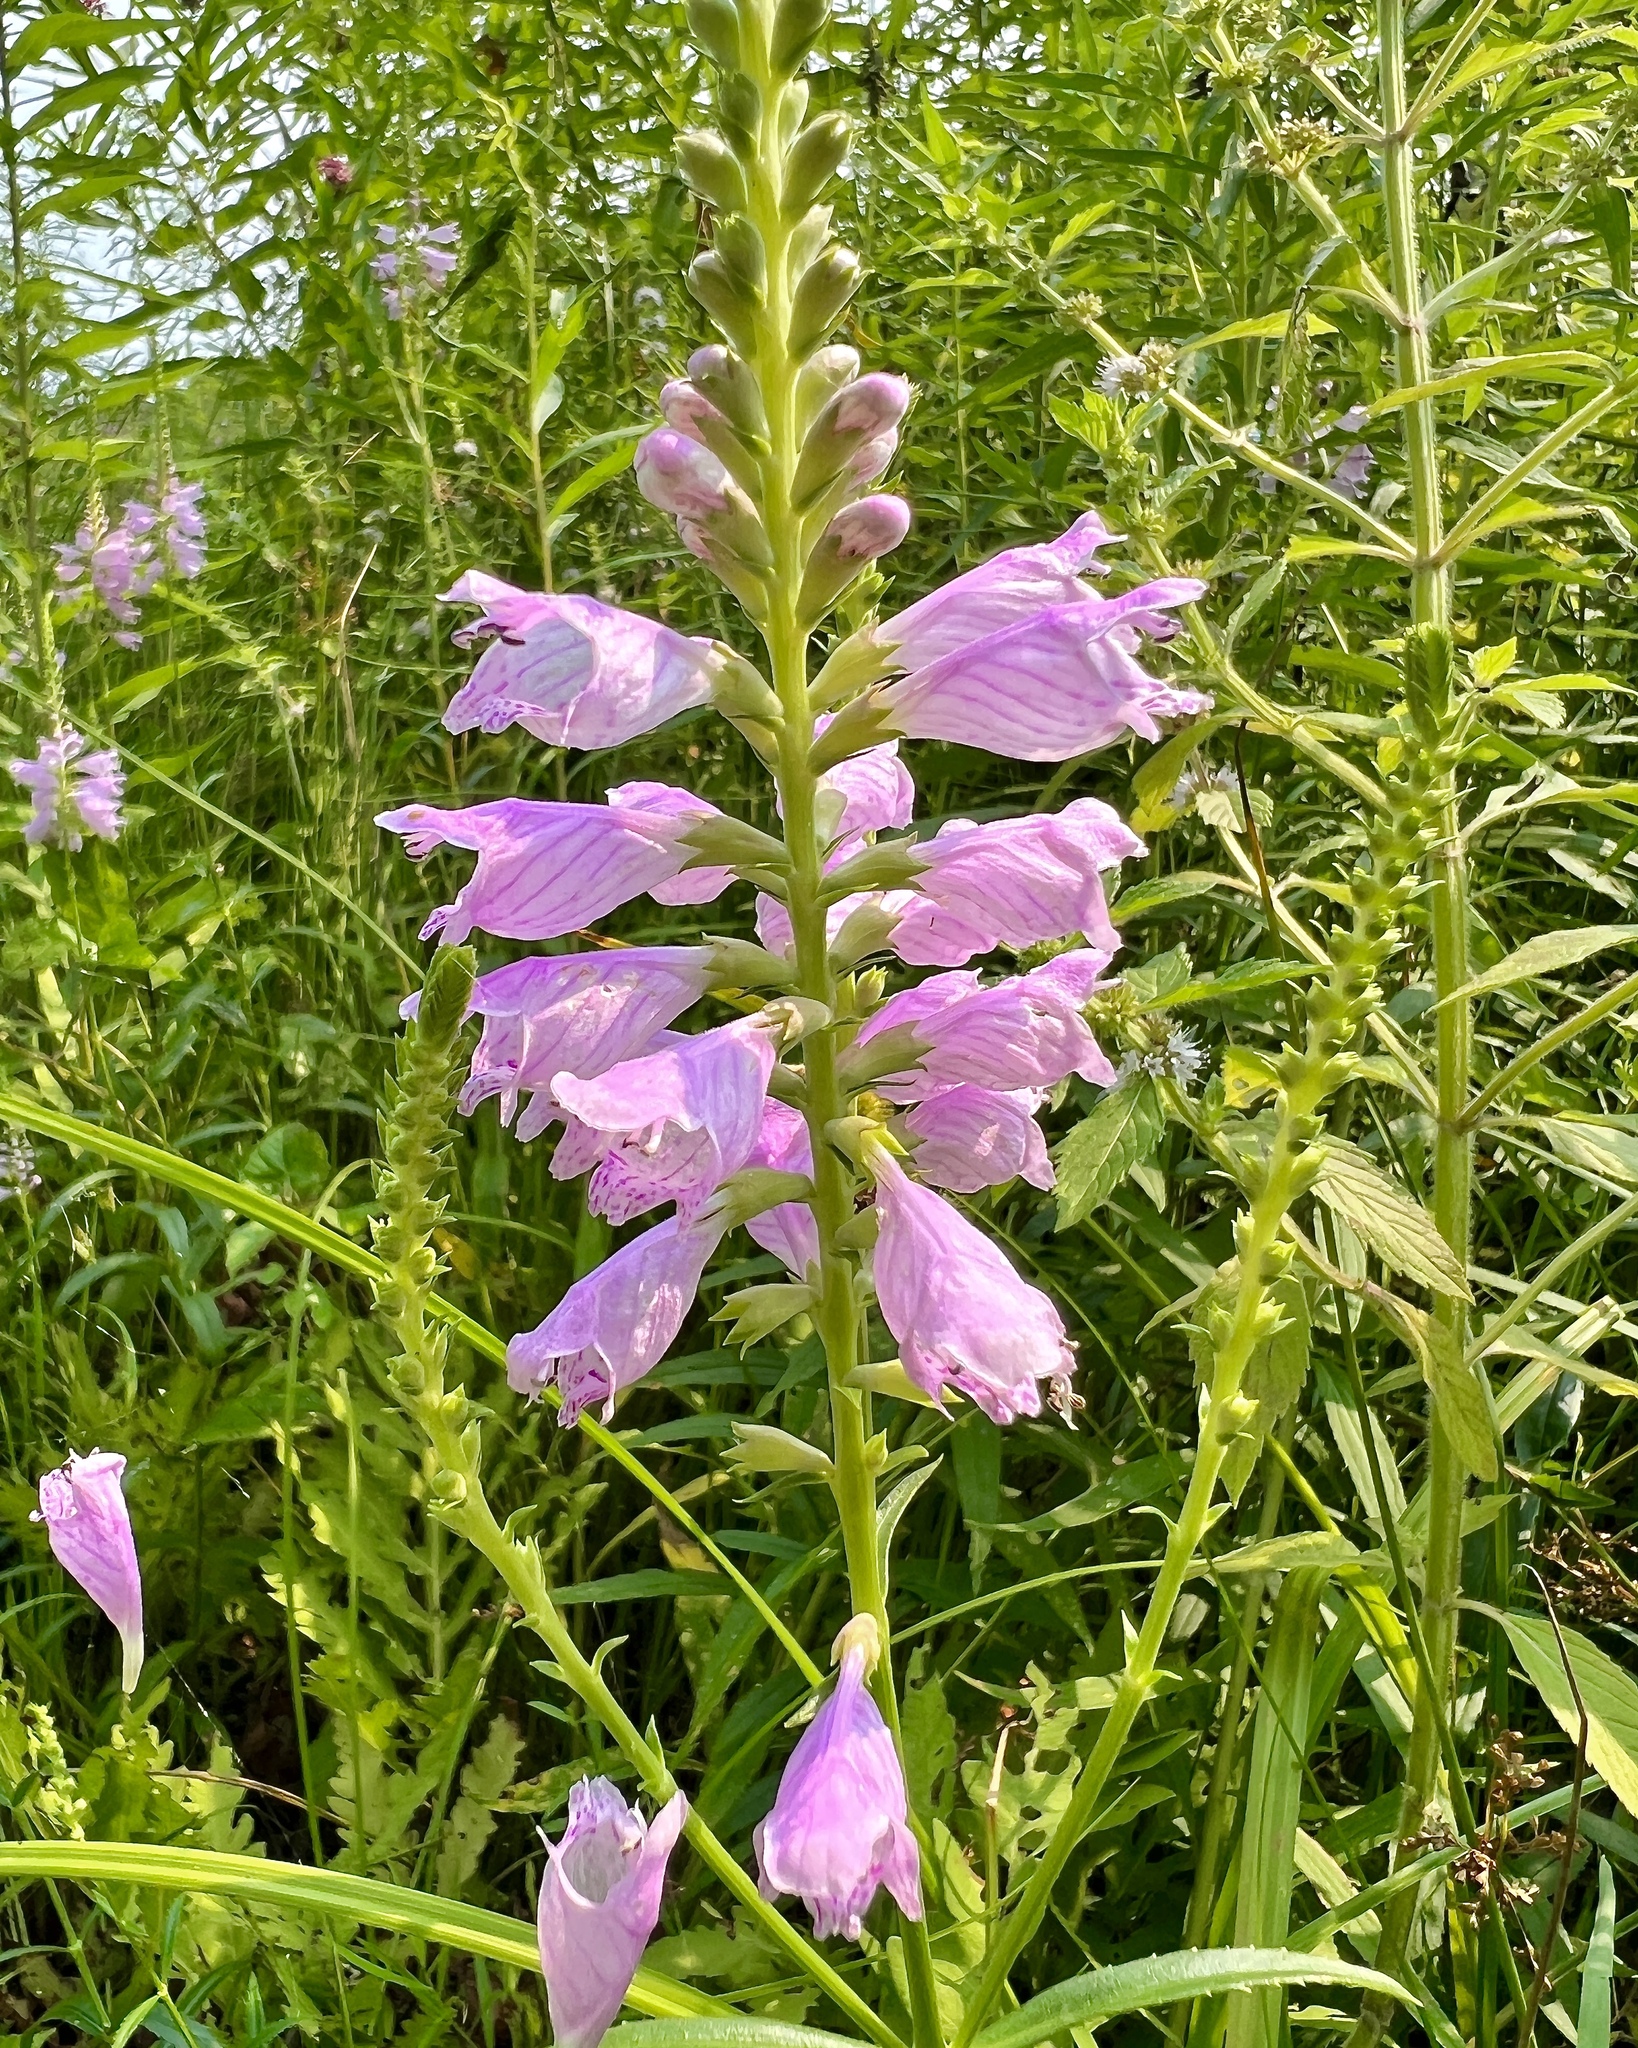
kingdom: Plantae
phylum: Tracheophyta
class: Magnoliopsida
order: Lamiales
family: Lamiaceae
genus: Physostegia
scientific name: Physostegia virginiana
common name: Obedient-plant
